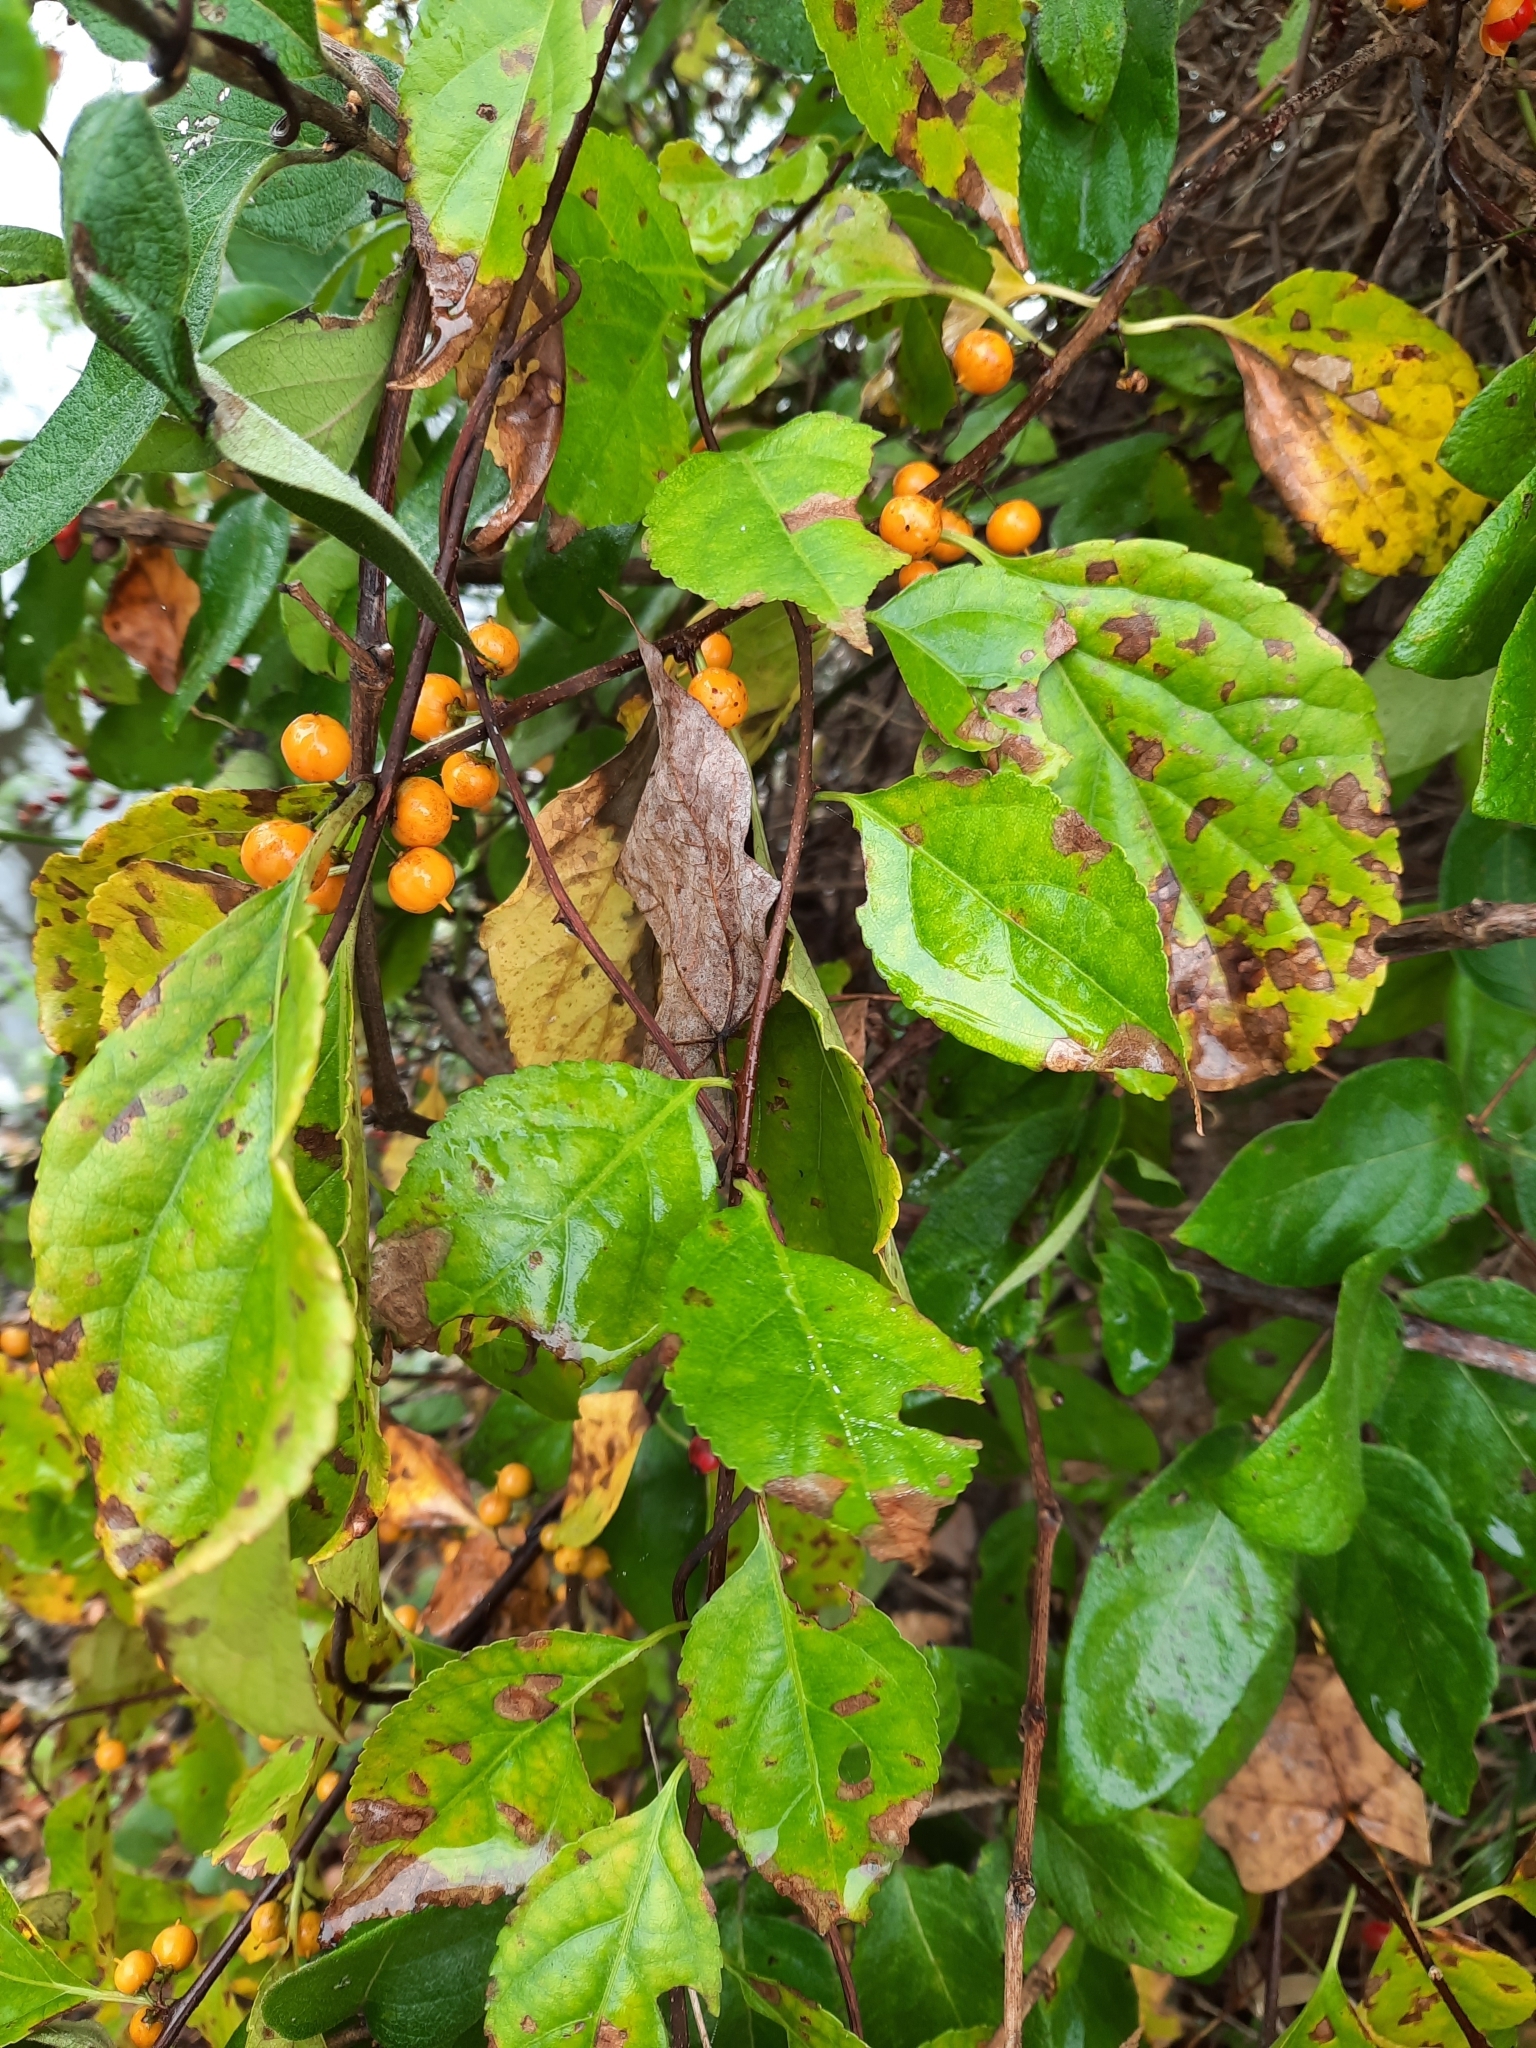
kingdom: Plantae
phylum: Tracheophyta
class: Magnoliopsida
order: Celastrales
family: Celastraceae
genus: Celastrus
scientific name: Celastrus orbiculatus
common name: Oriental bittersweet
